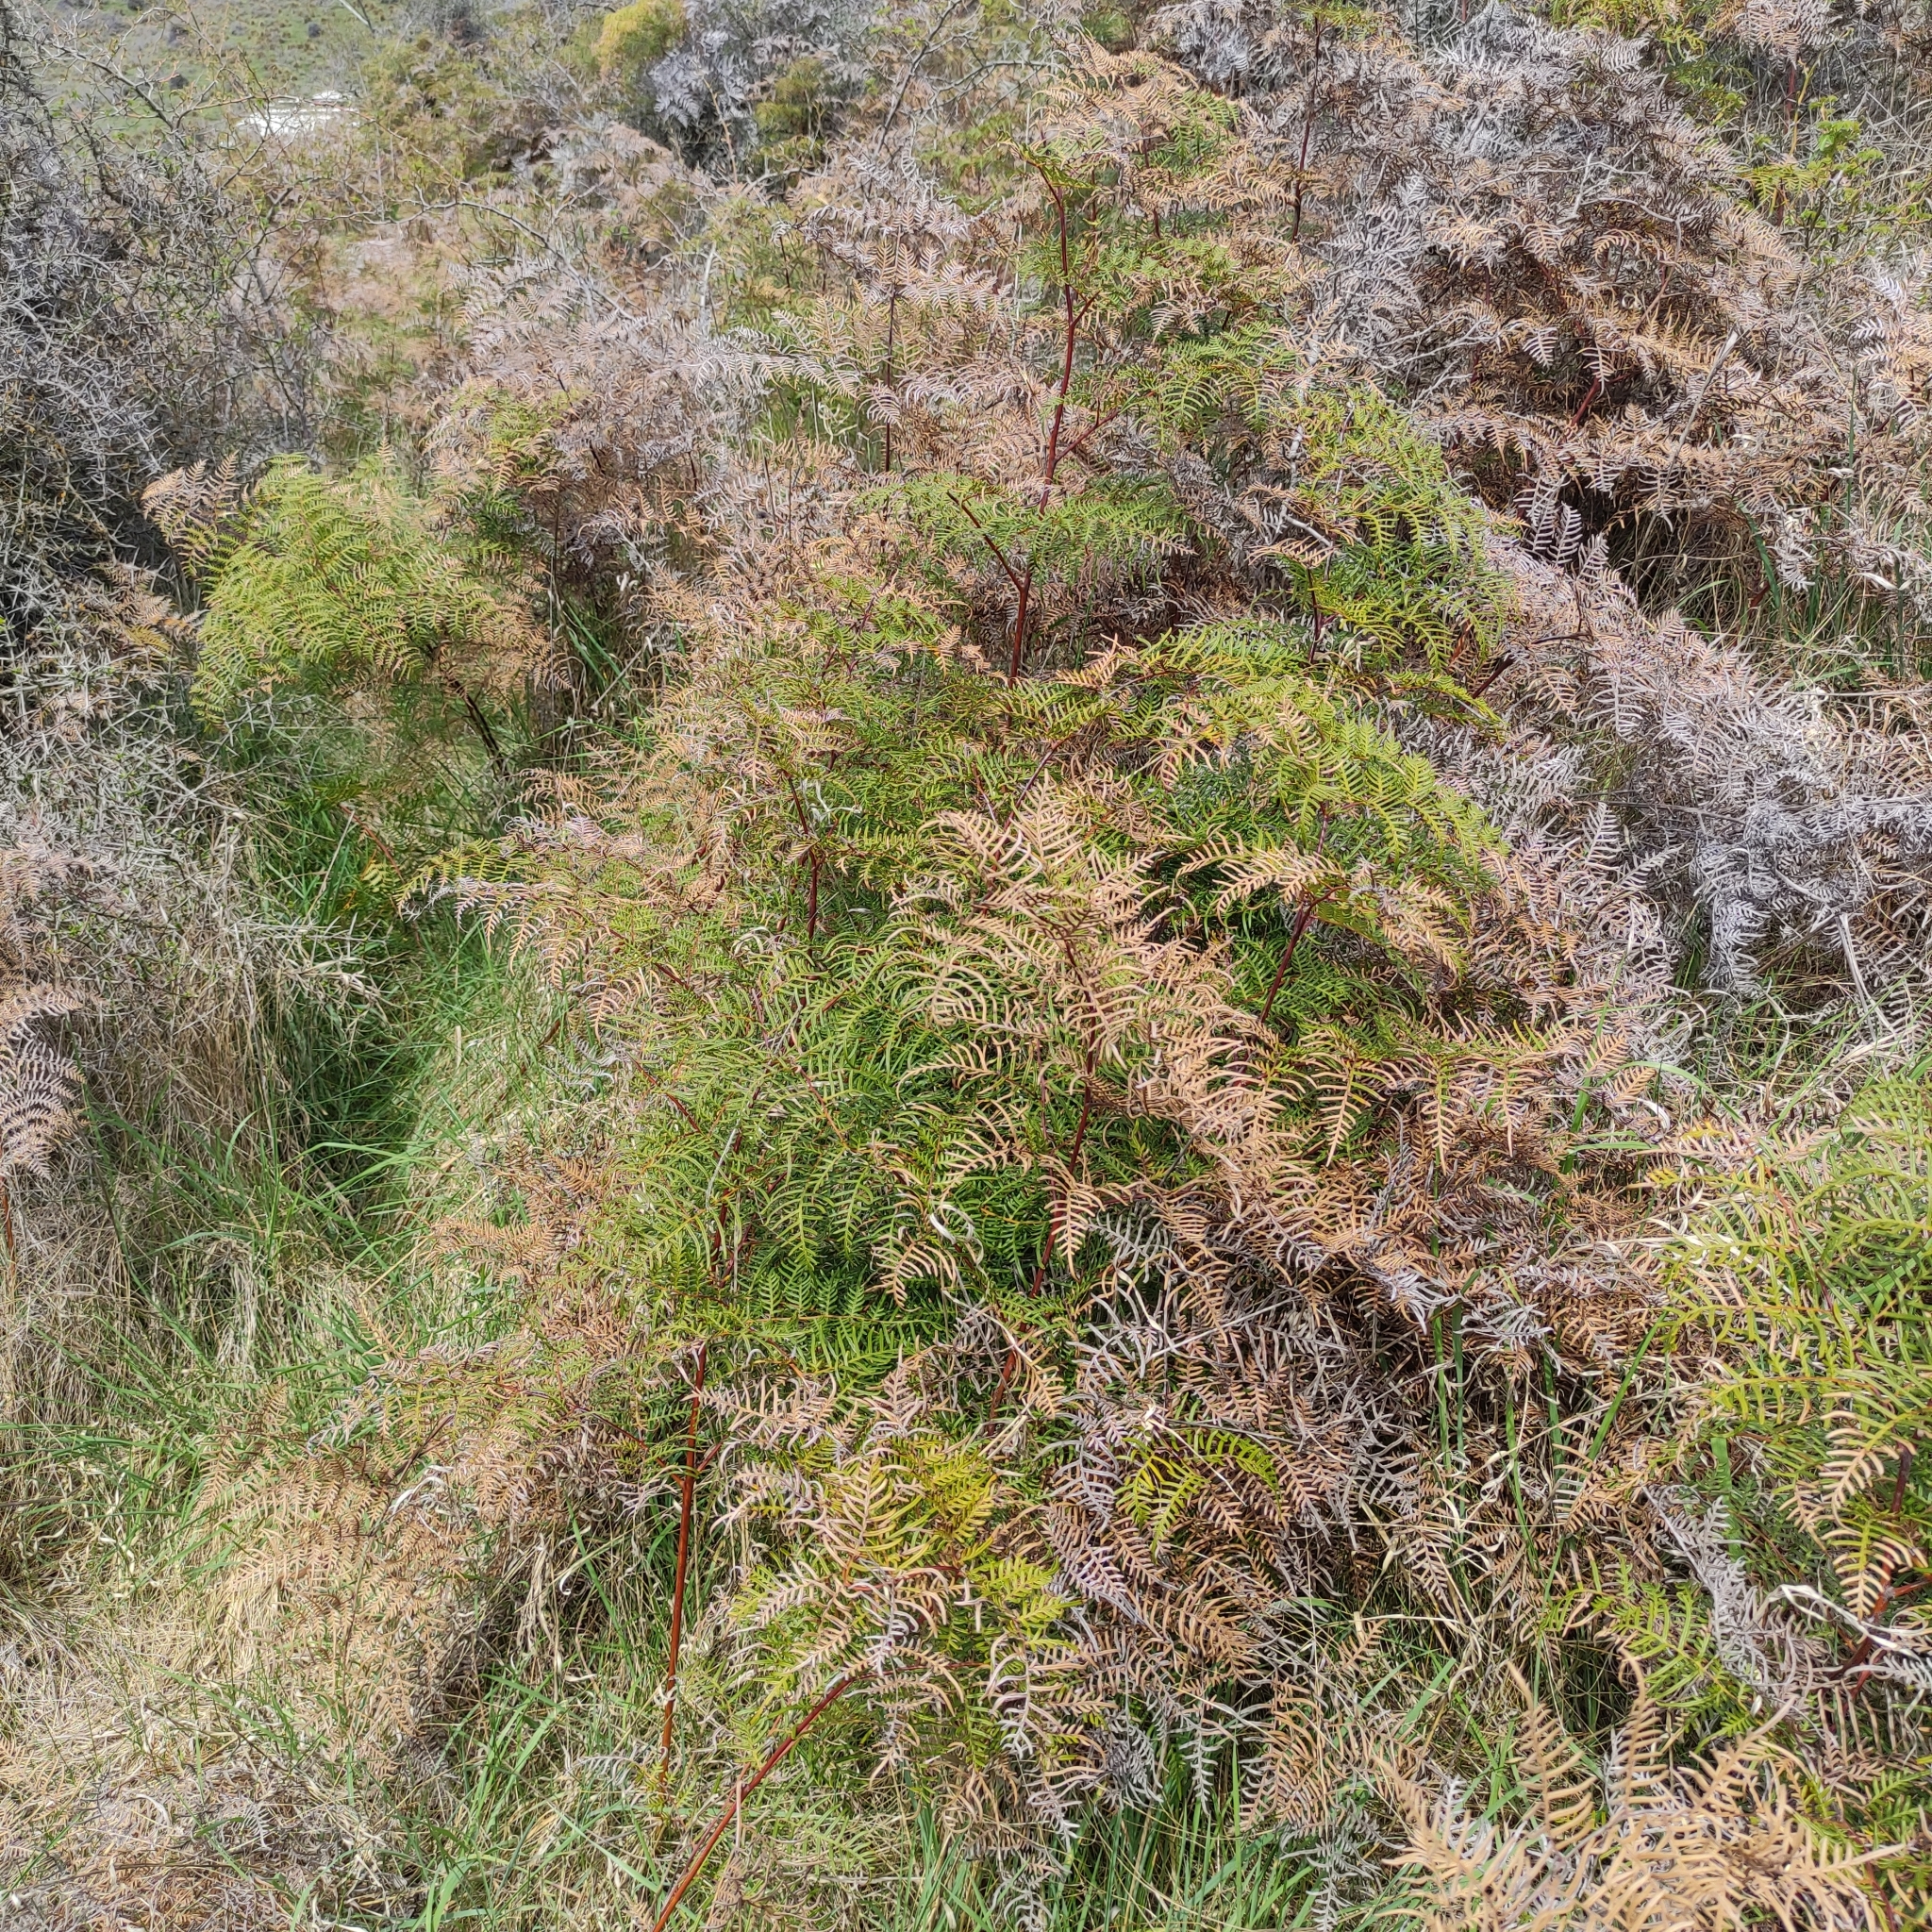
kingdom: Plantae
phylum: Tracheophyta
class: Polypodiopsida
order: Polypodiales
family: Dennstaedtiaceae
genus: Pteridium
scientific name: Pteridium esculentum
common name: Bracken fern
